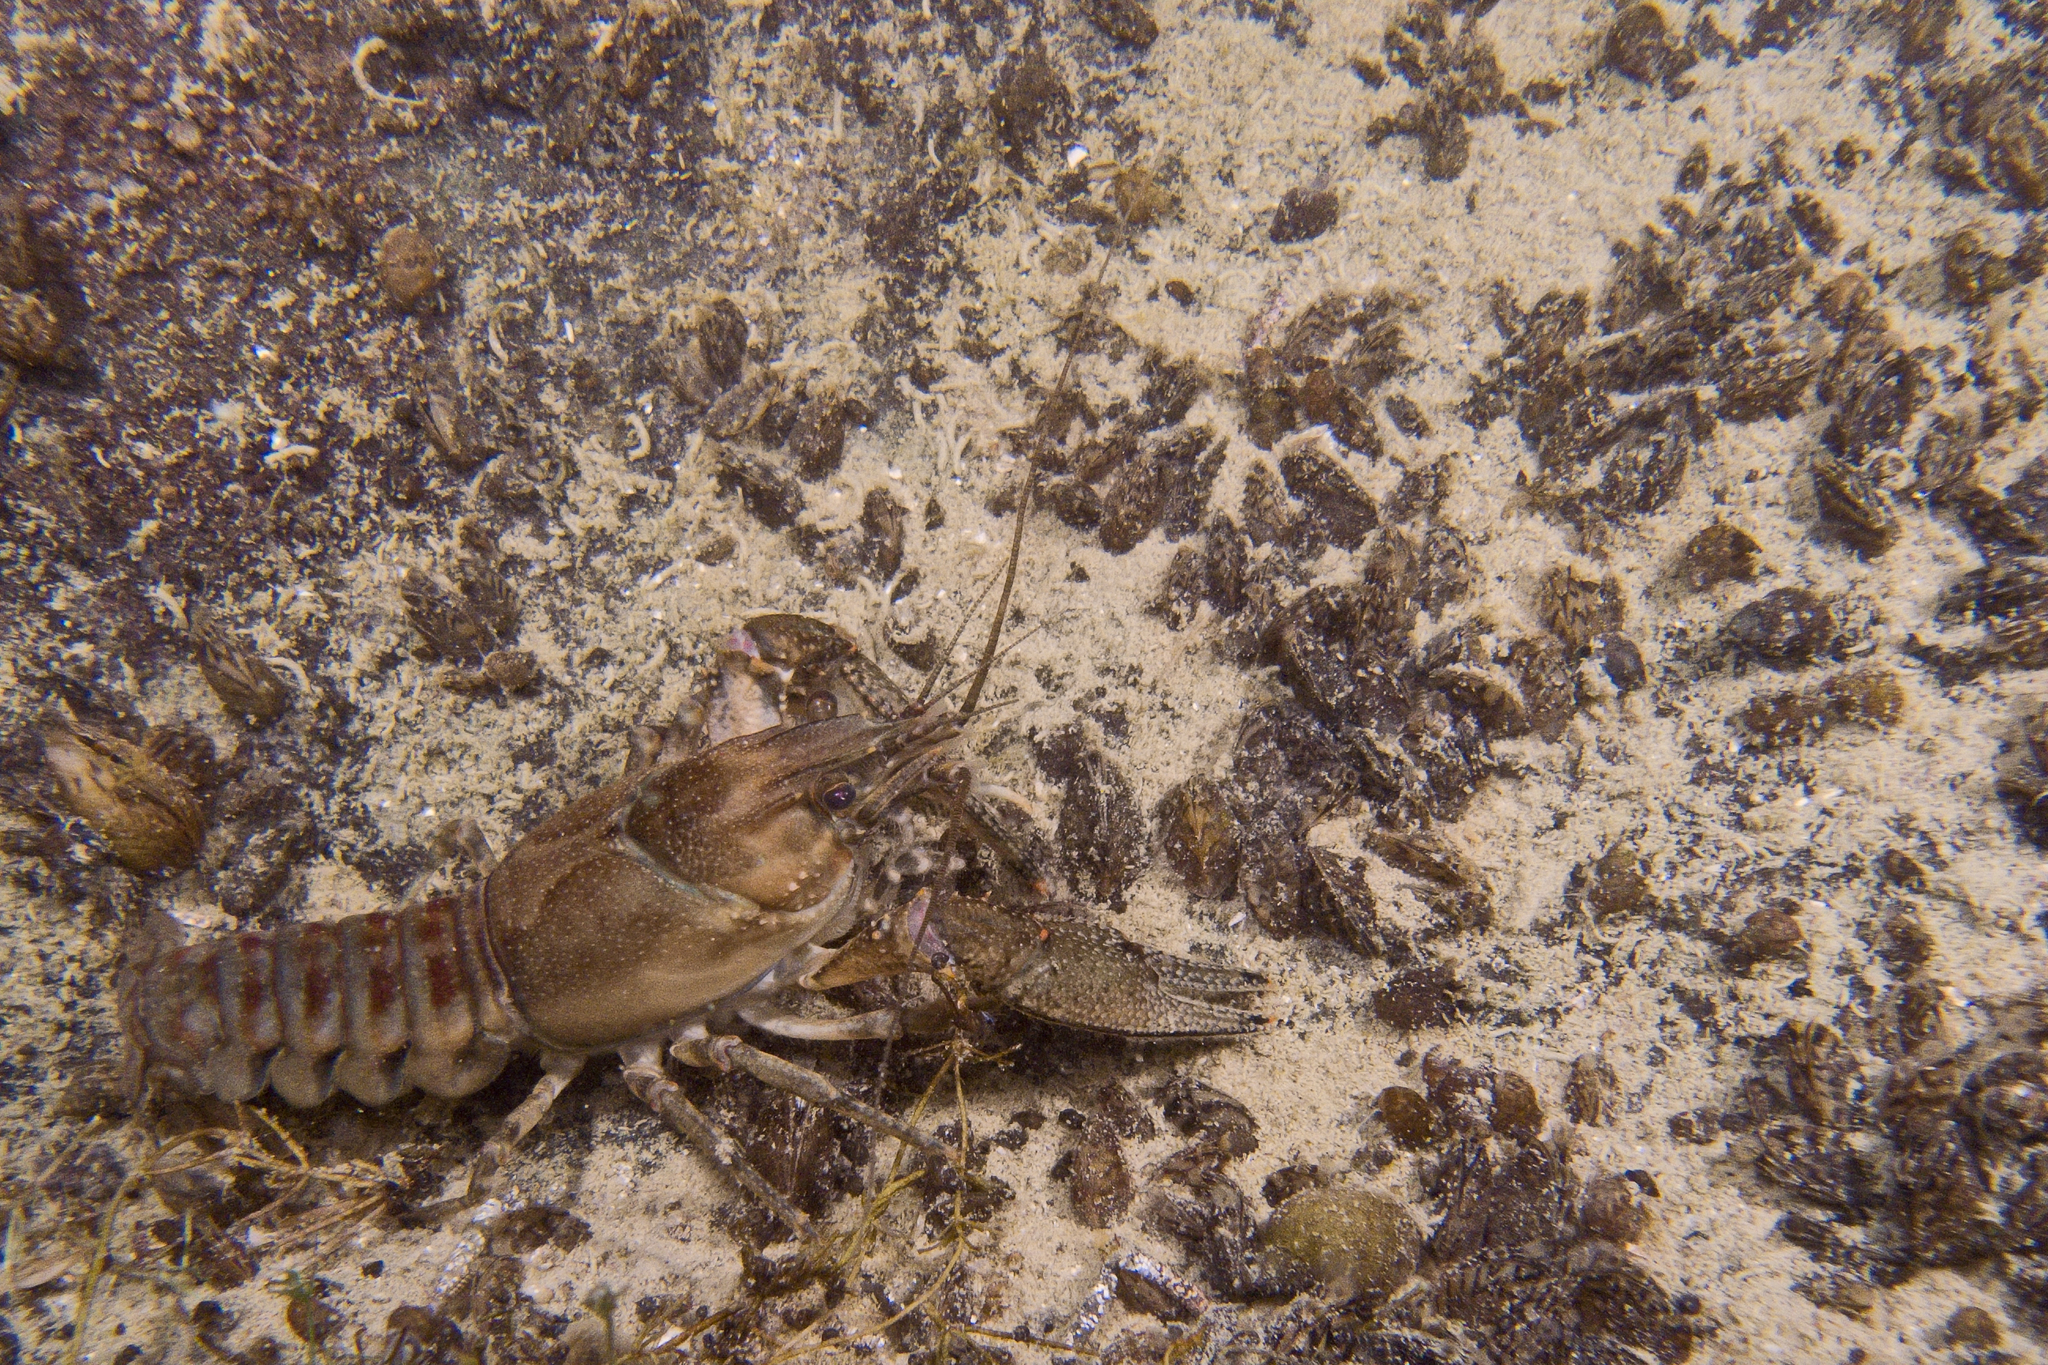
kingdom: Animalia
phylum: Mollusca
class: Bivalvia
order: Myida
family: Dreissenidae
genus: Dreissena
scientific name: Dreissena polymorpha
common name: Zebra mussel
